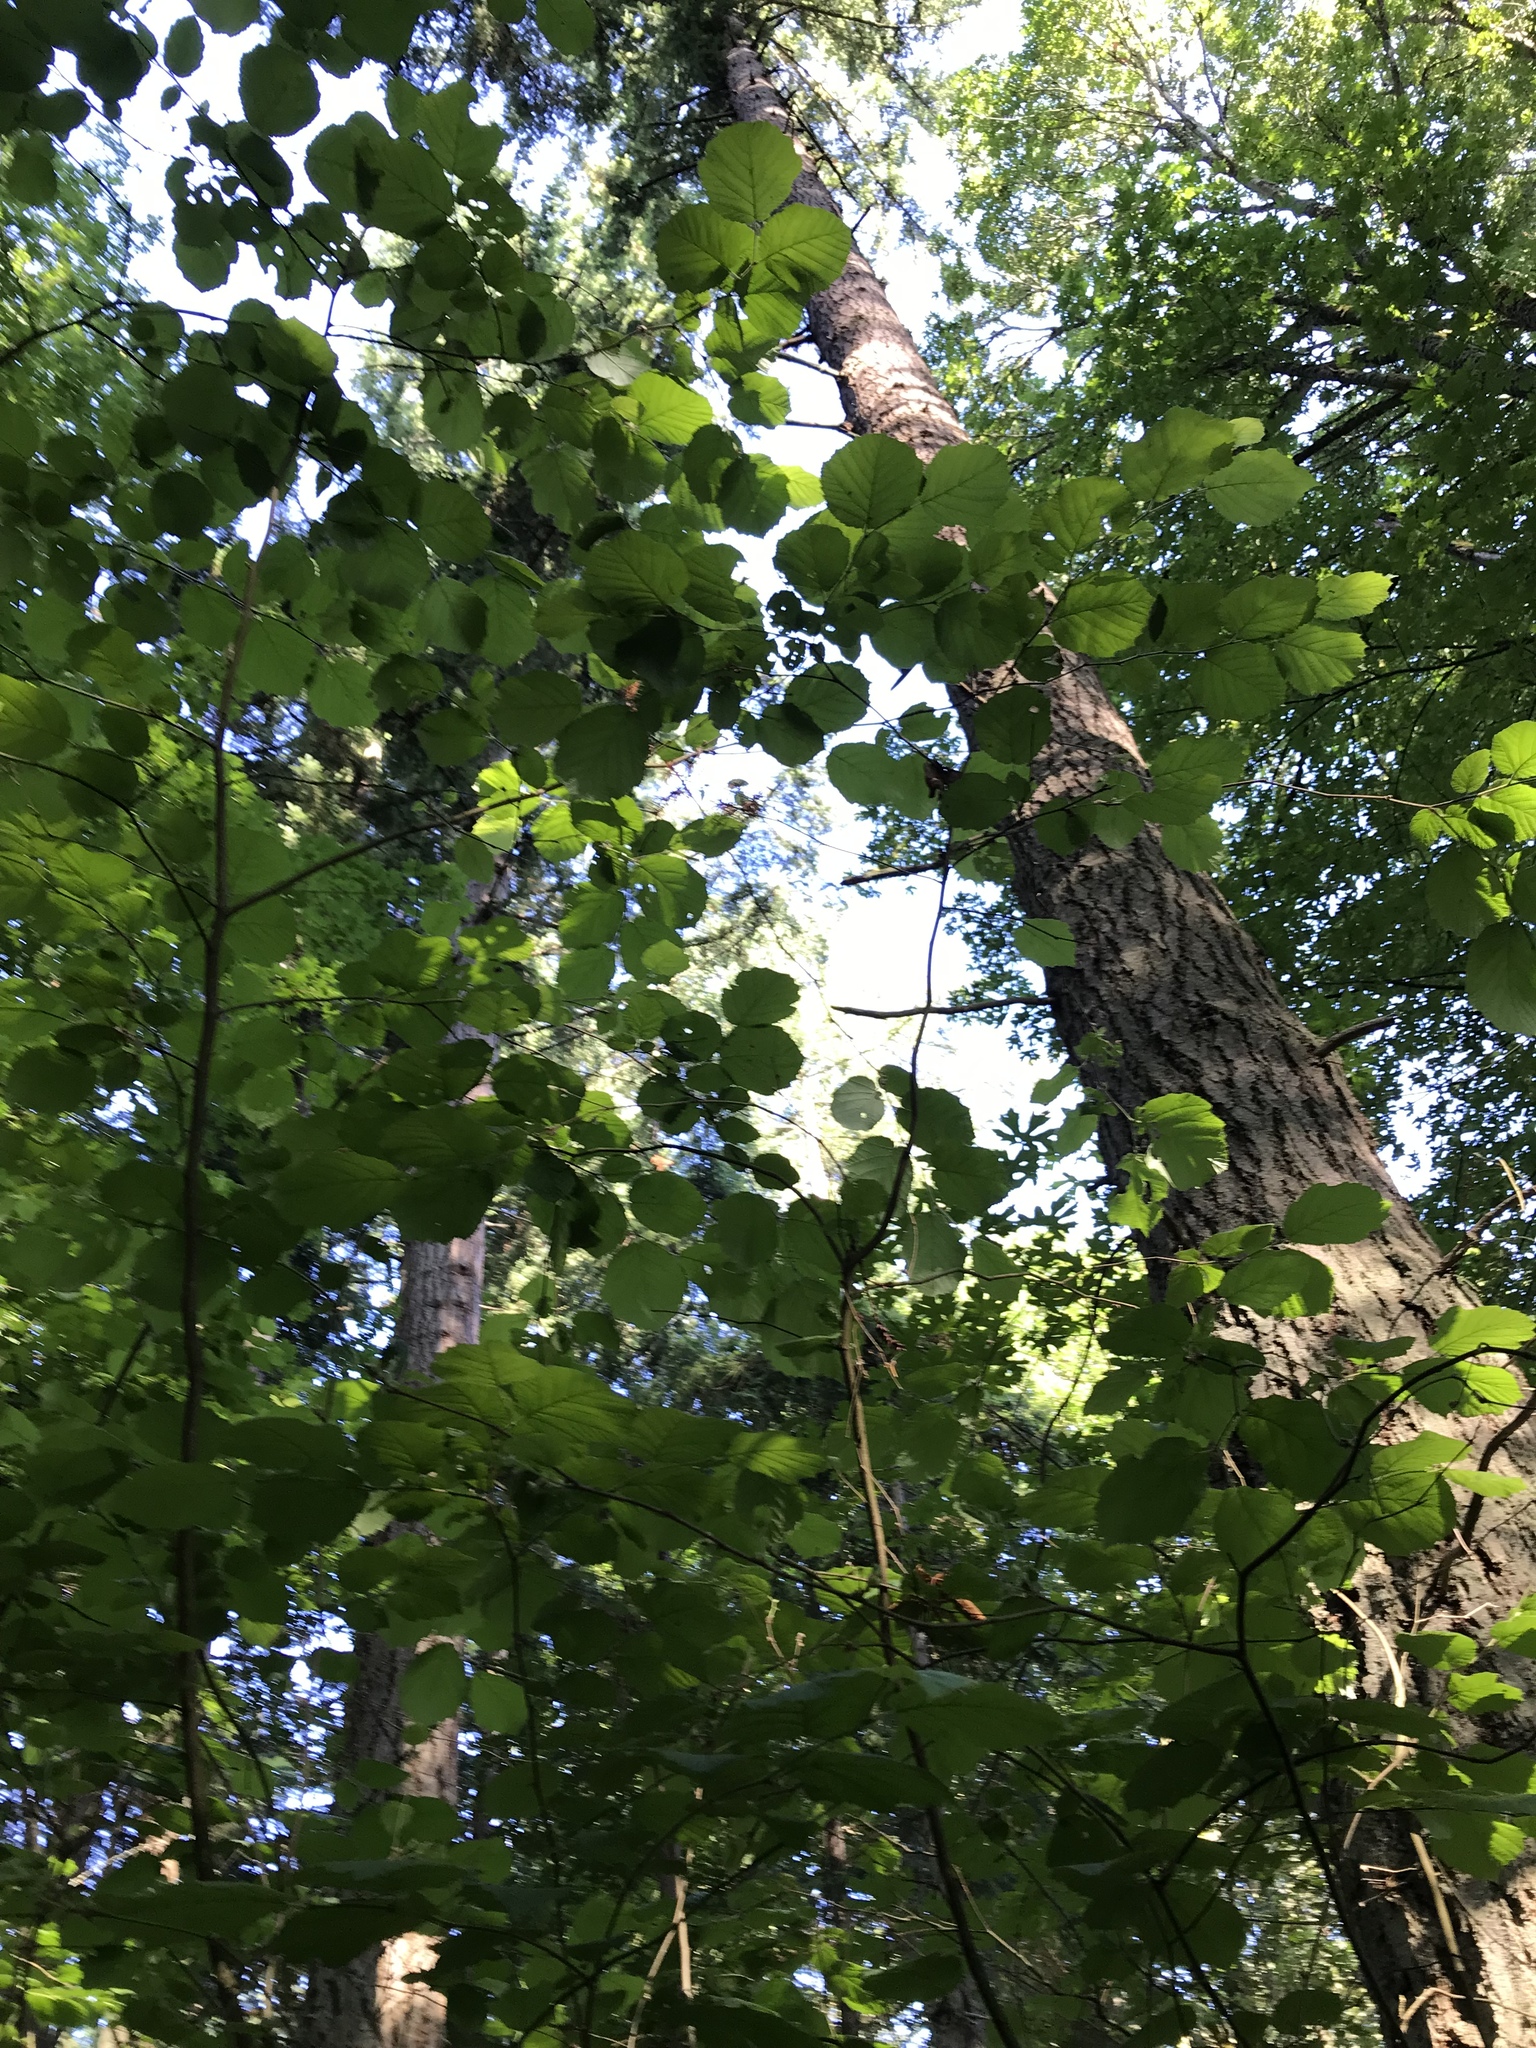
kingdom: Plantae
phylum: Tracheophyta
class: Magnoliopsida
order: Fagales
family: Betulaceae
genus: Corylus
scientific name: Corylus cornuta
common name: Beaked hazel
